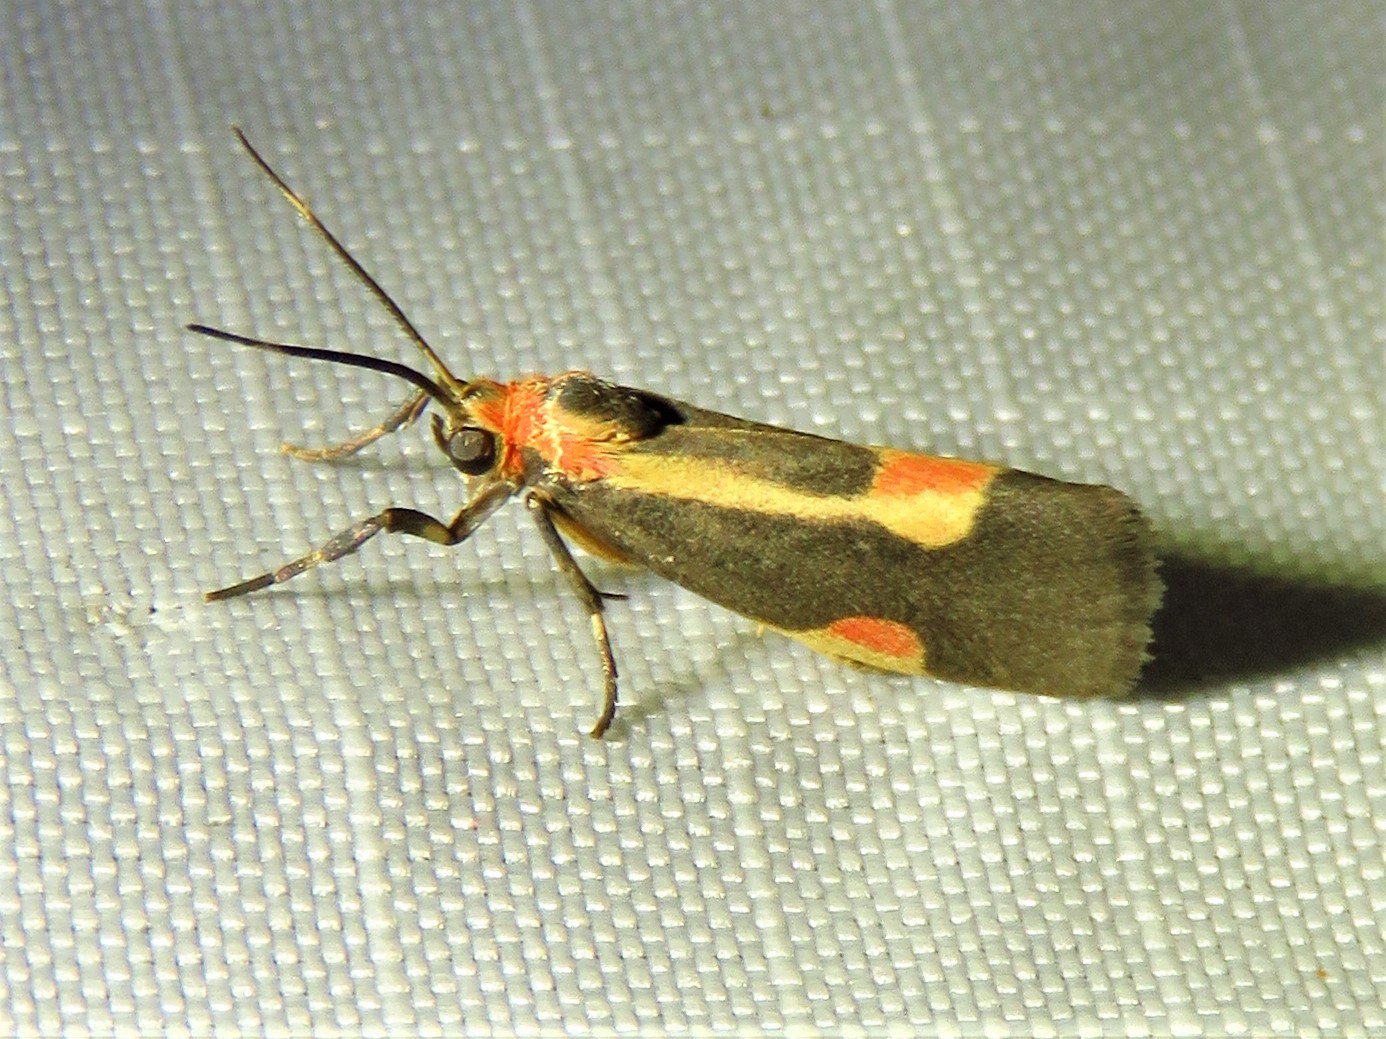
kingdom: Animalia
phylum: Arthropoda
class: Insecta
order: Lepidoptera
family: Erebidae
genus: Cisthene
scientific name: Cisthene packardii
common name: Packard's lichen moth
